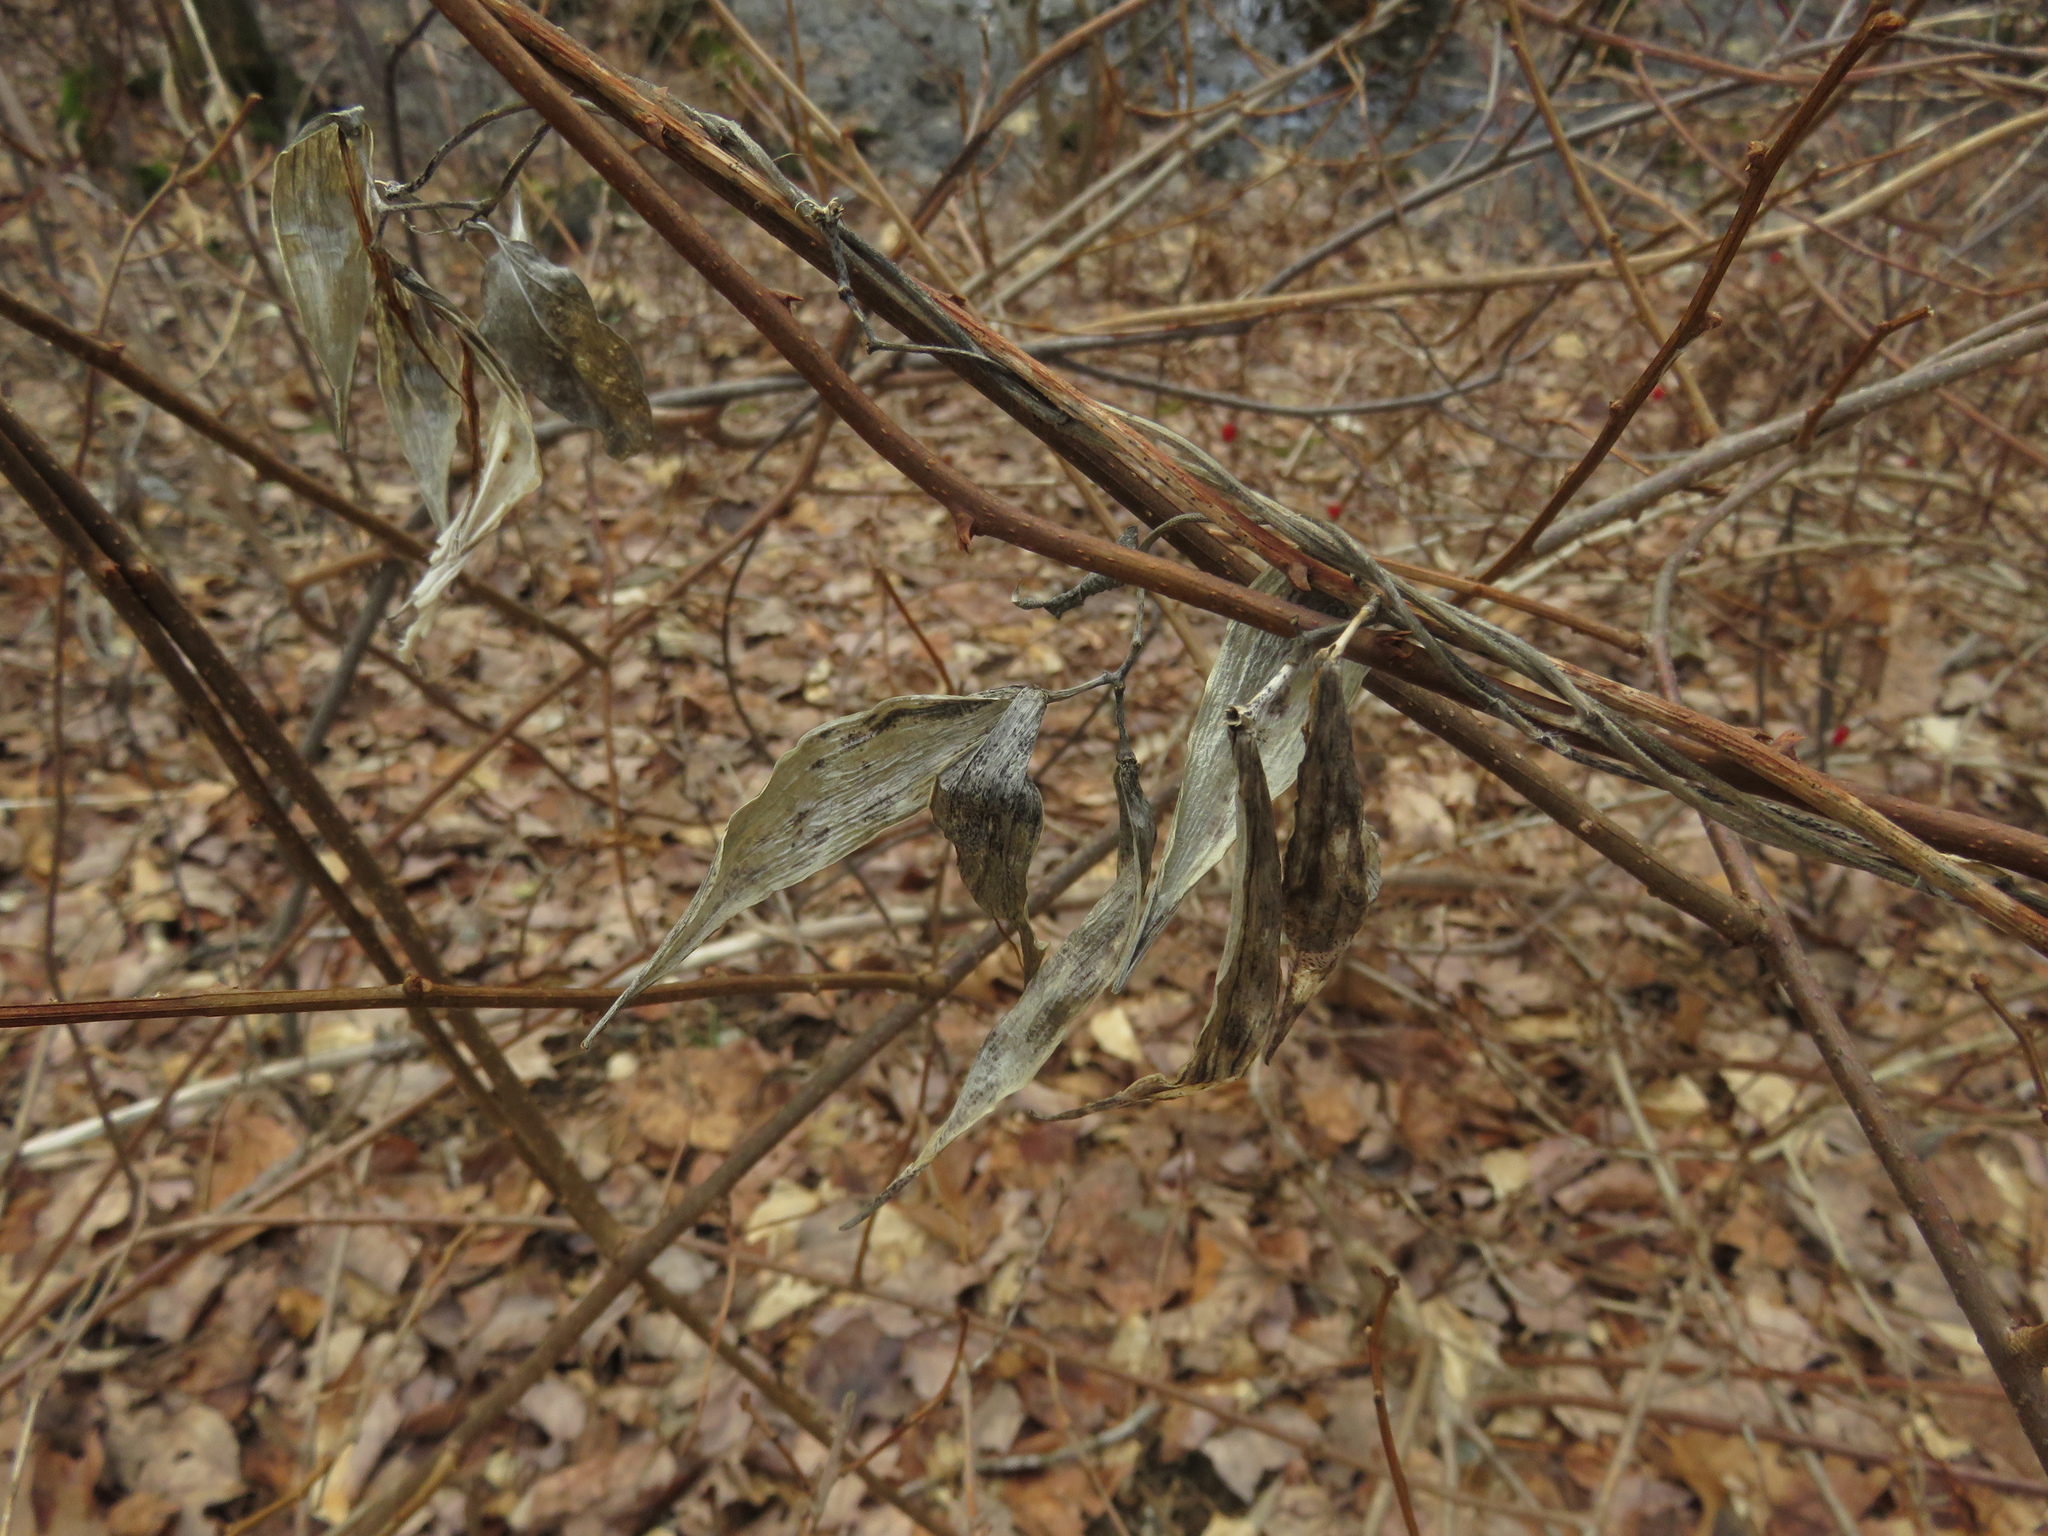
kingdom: Plantae
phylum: Tracheophyta
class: Magnoliopsida
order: Gentianales
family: Apocynaceae
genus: Vincetoxicum
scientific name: Vincetoxicum nigrum
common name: Black swallow-wort
